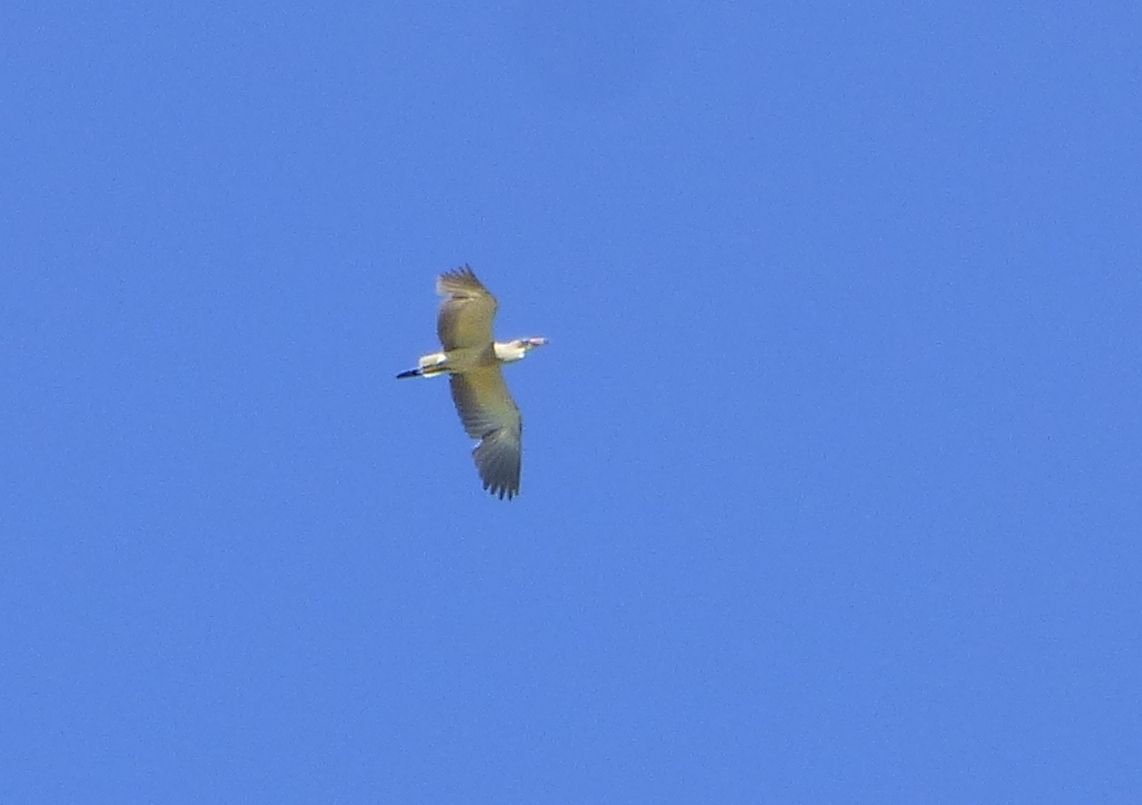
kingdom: Animalia
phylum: Chordata
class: Aves
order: Pelecaniformes
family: Ardeidae
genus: Syrigma
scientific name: Syrigma sibilatrix
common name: Whistling heron
